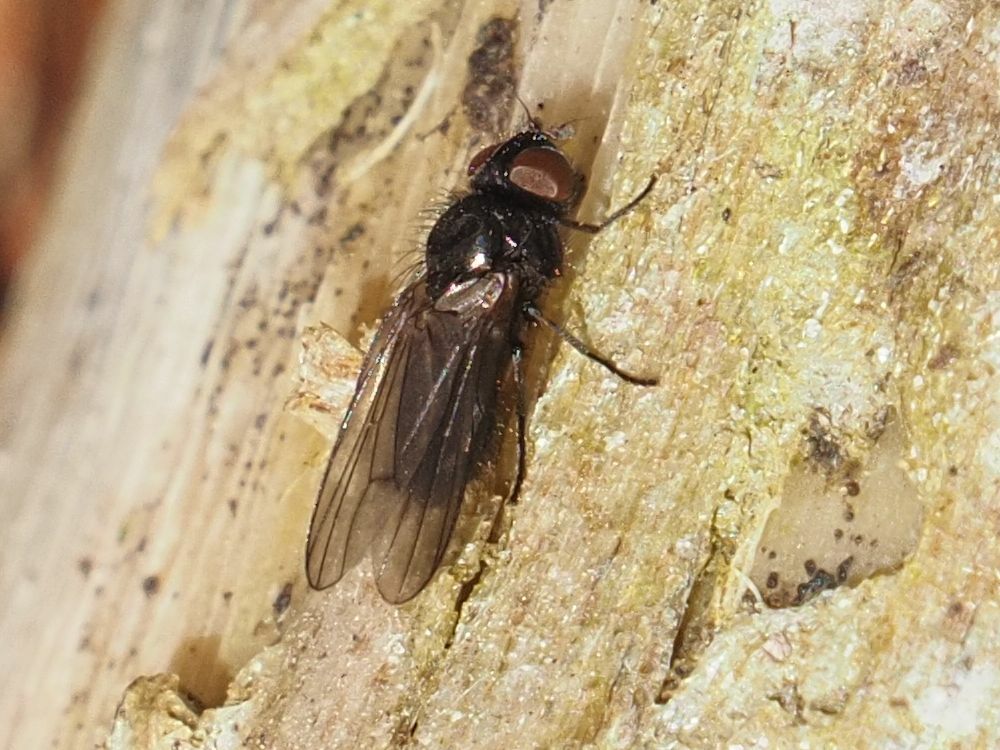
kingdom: Animalia
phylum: Arthropoda
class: Insecta
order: Diptera
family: Lonchaeidae
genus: Earomyia
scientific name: Earomyia lonchaeoides
